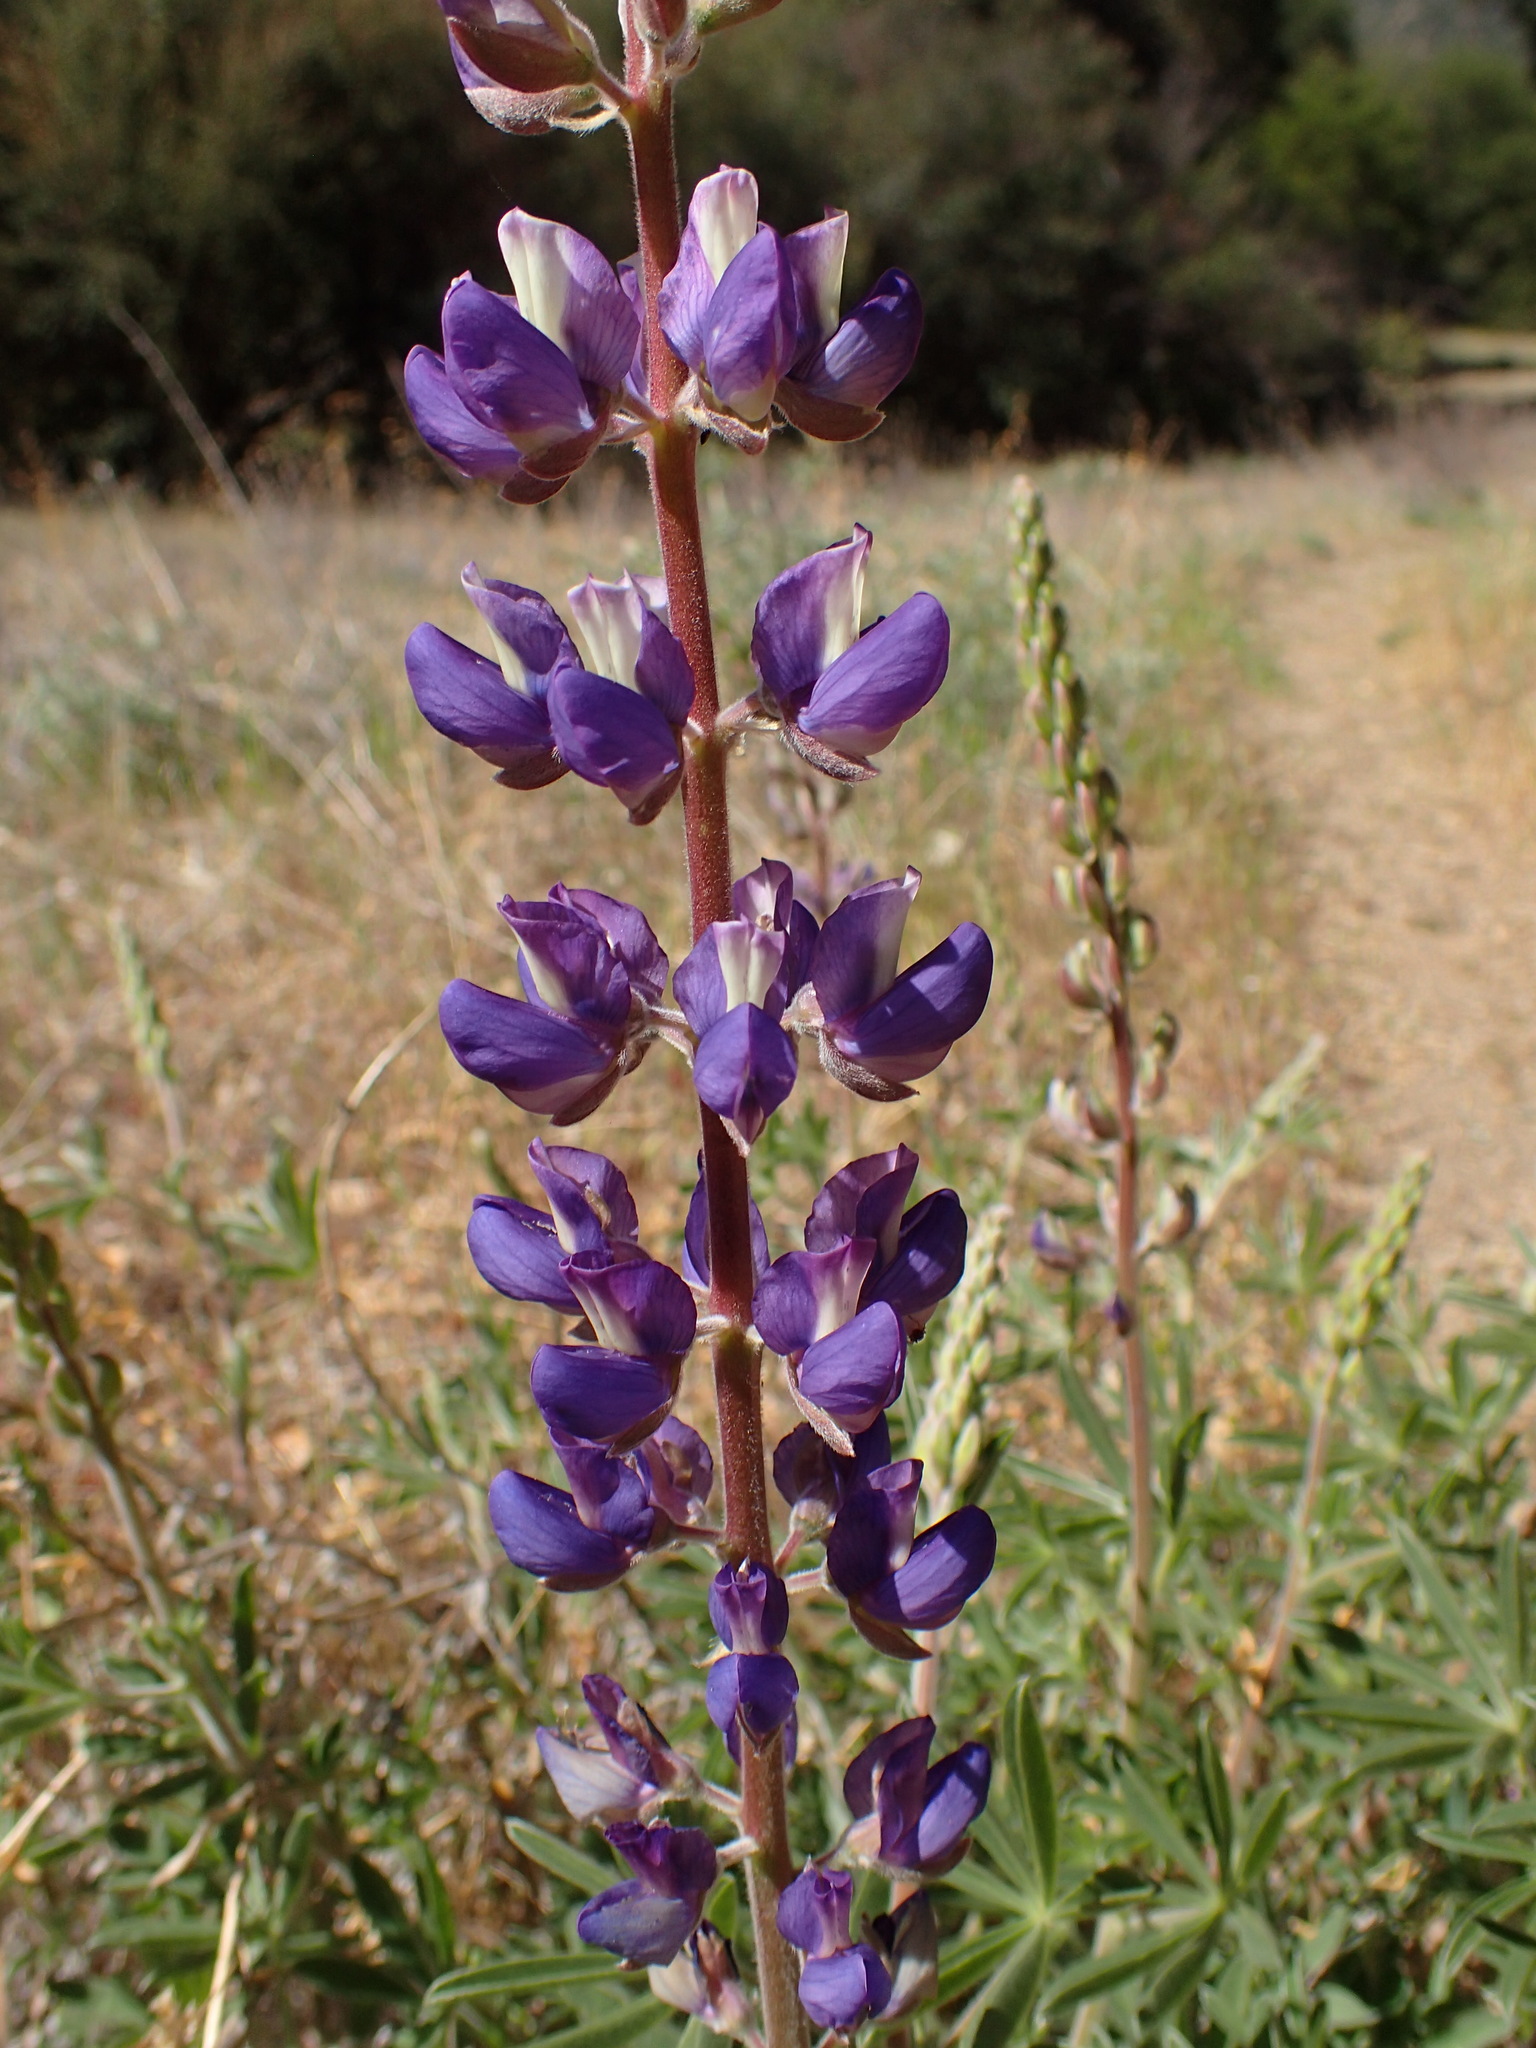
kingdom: Plantae
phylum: Tracheophyta
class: Magnoliopsida
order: Fabales
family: Fabaceae
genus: Lupinus
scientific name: Lupinus formosus
